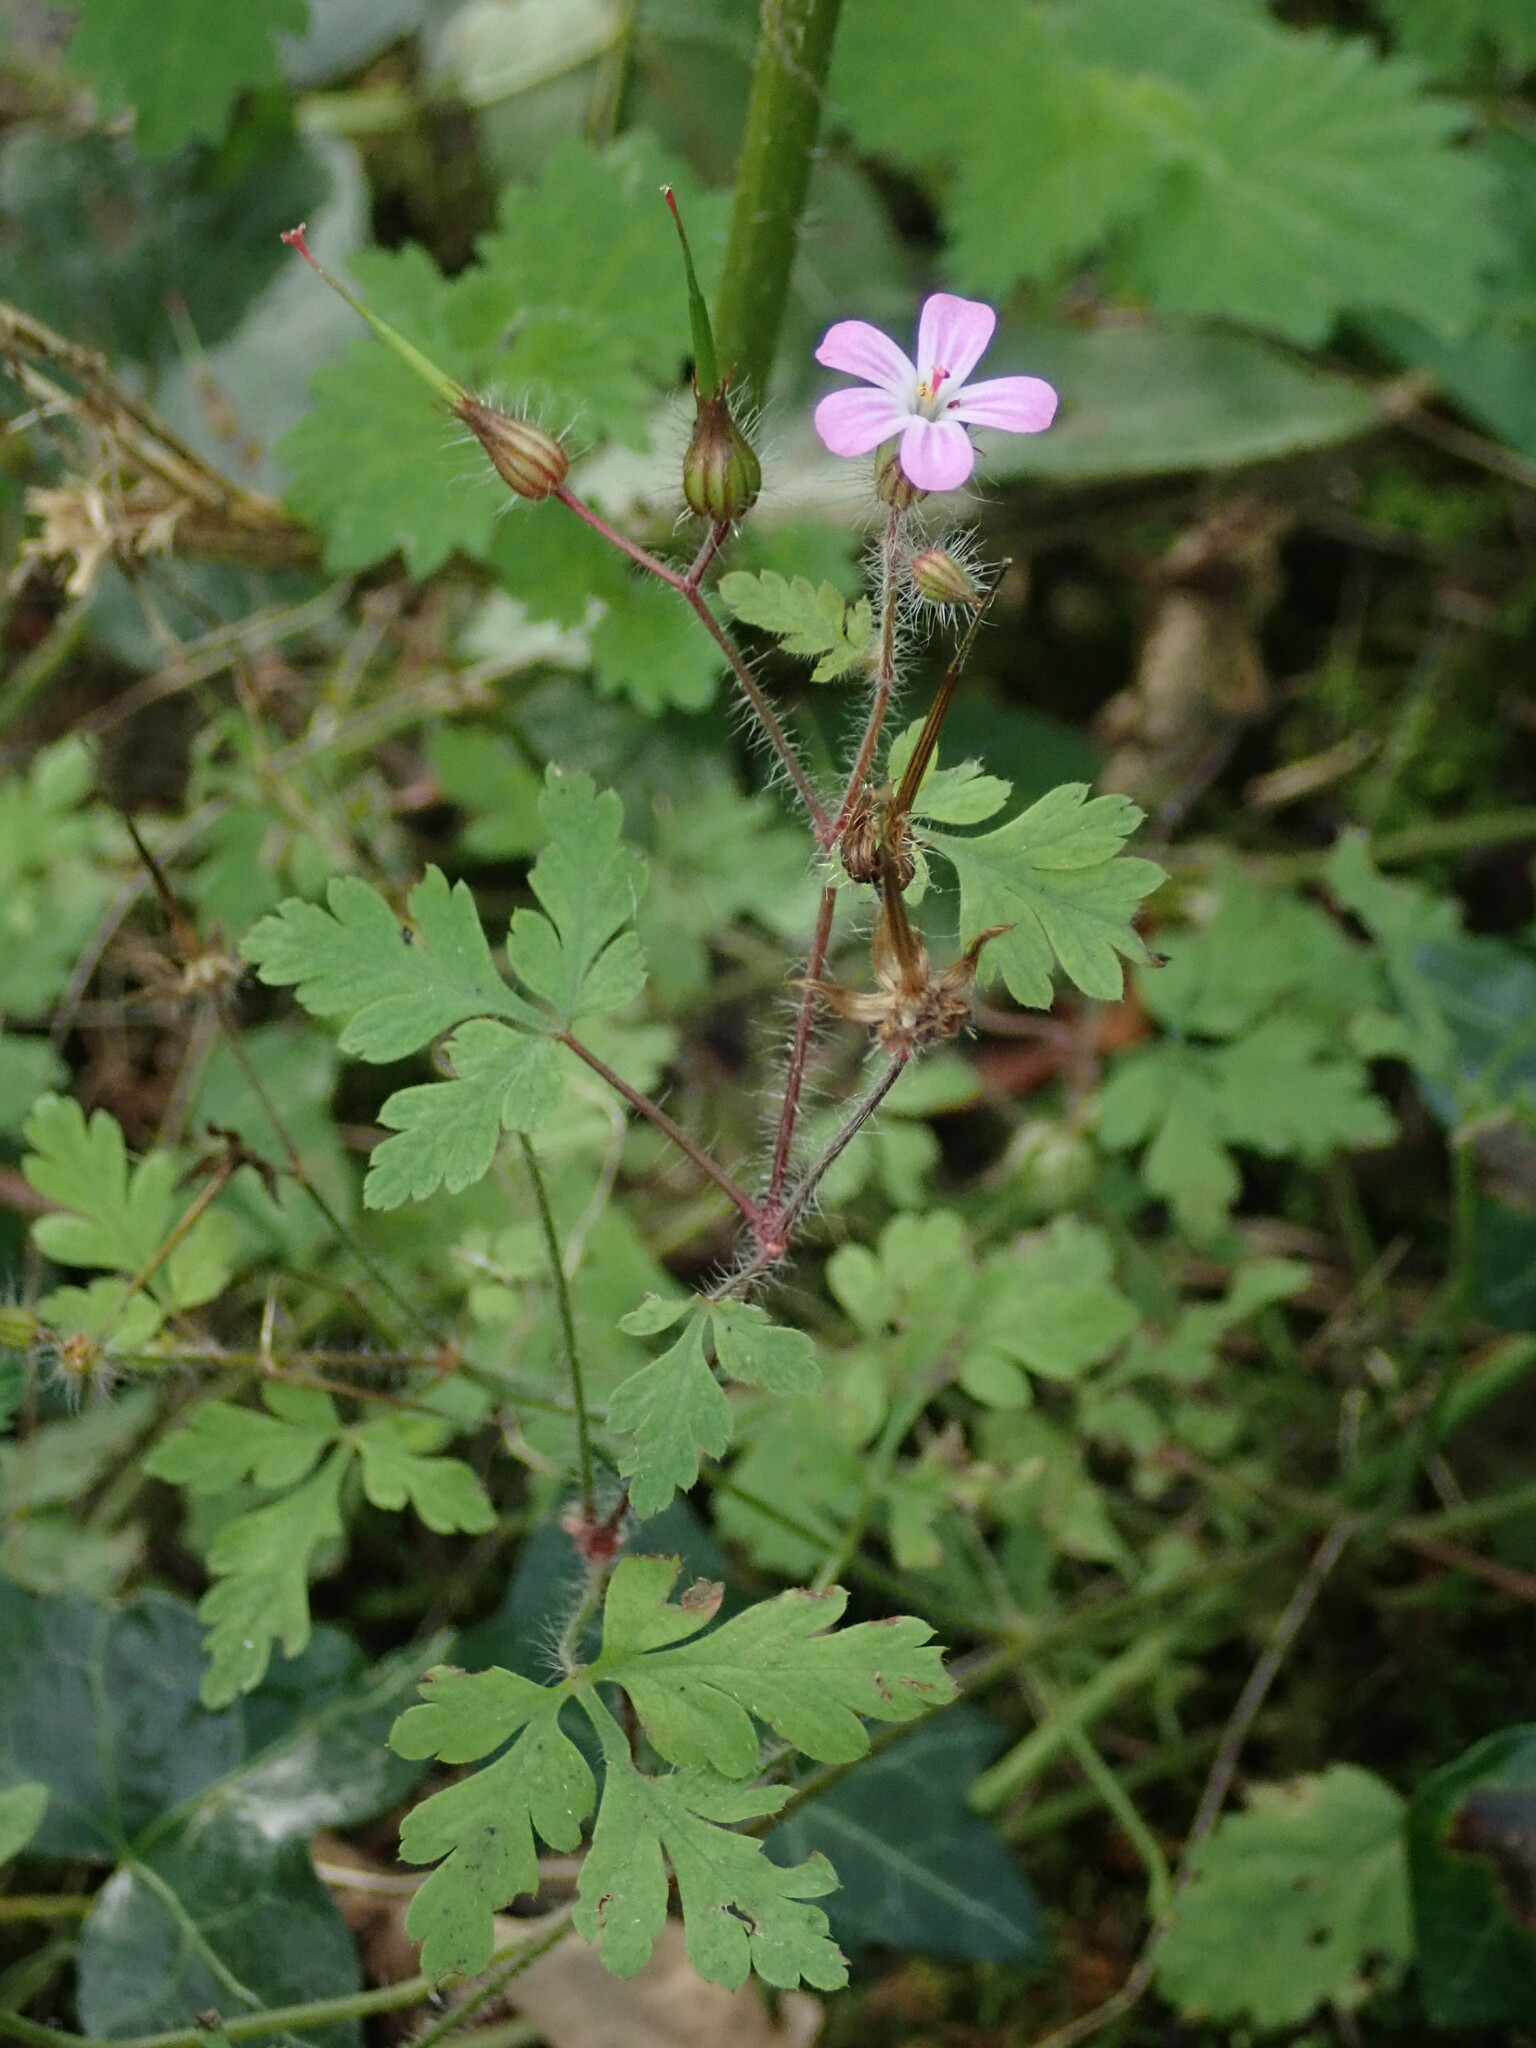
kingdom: Plantae
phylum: Tracheophyta
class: Magnoliopsida
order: Geraniales
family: Geraniaceae
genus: Geranium
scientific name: Geranium robertianum
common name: Herb-robert
